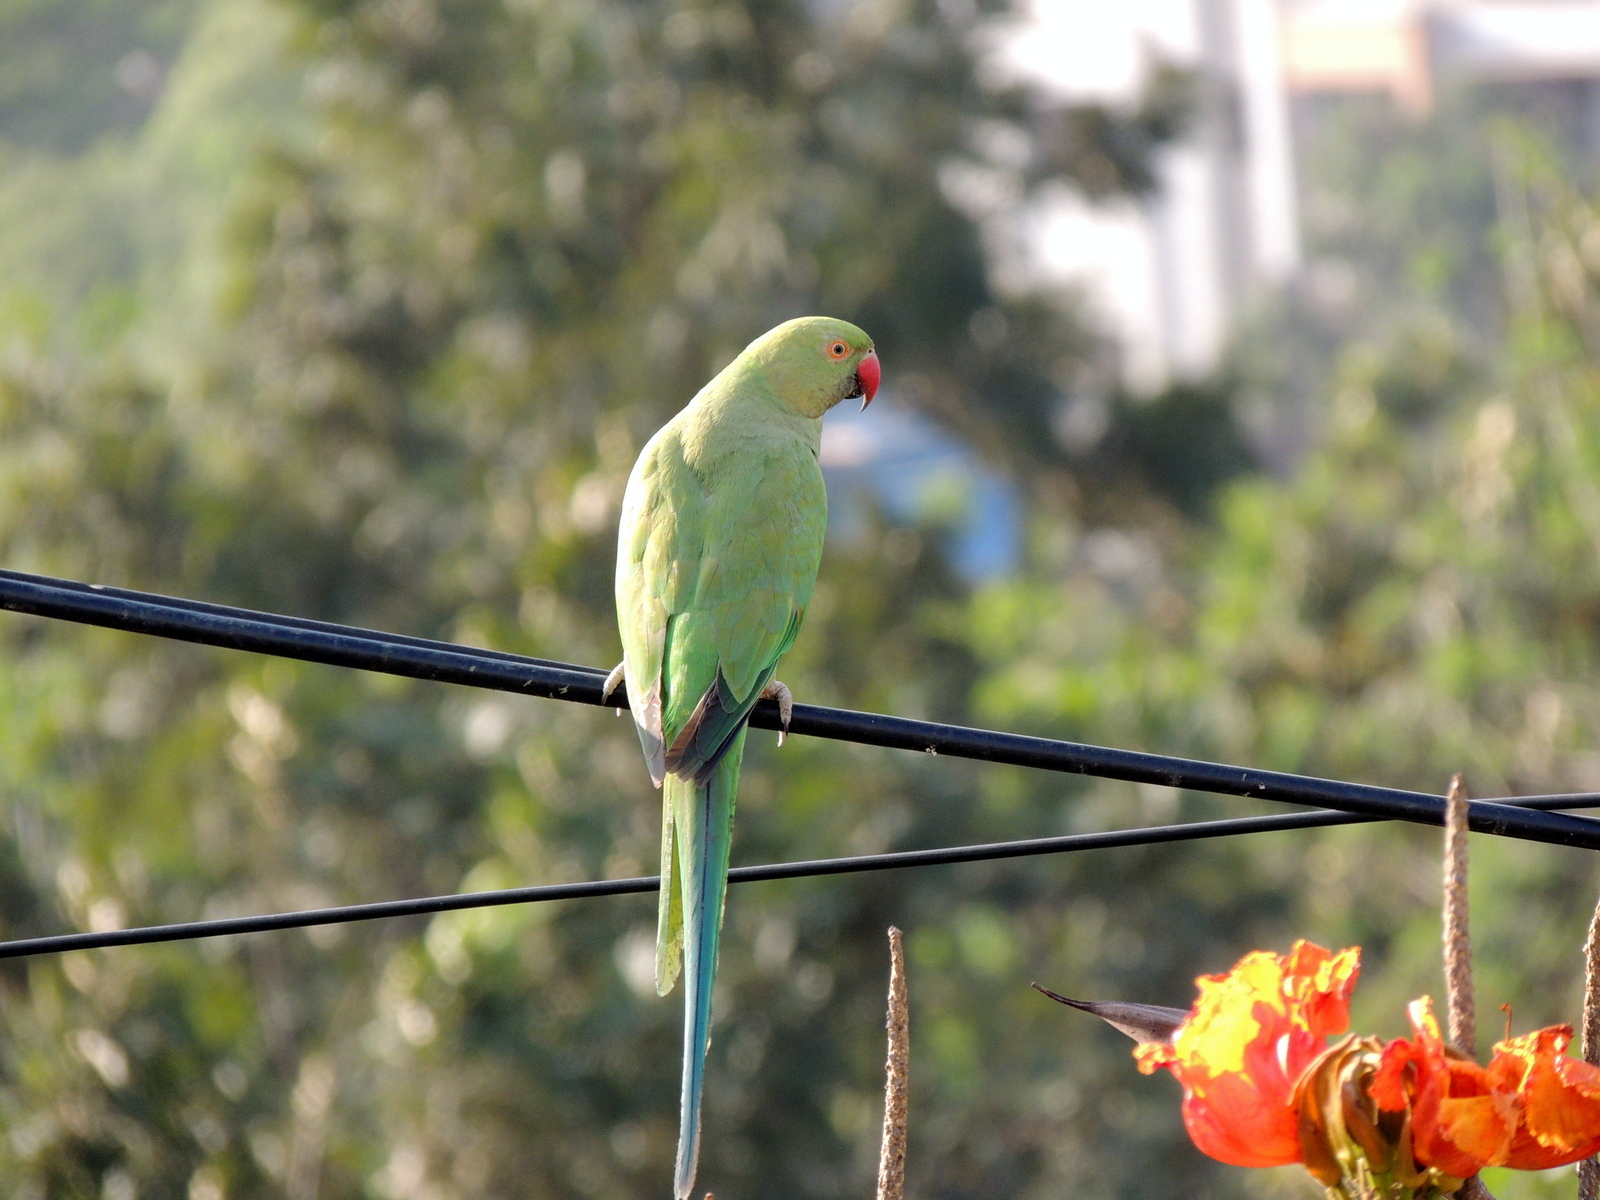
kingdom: Animalia
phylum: Chordata
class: Aves
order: Psittaciformes
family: Psittacidae
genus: Psittacula
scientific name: Psittacula krameri
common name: Rose-ringed parakeet
